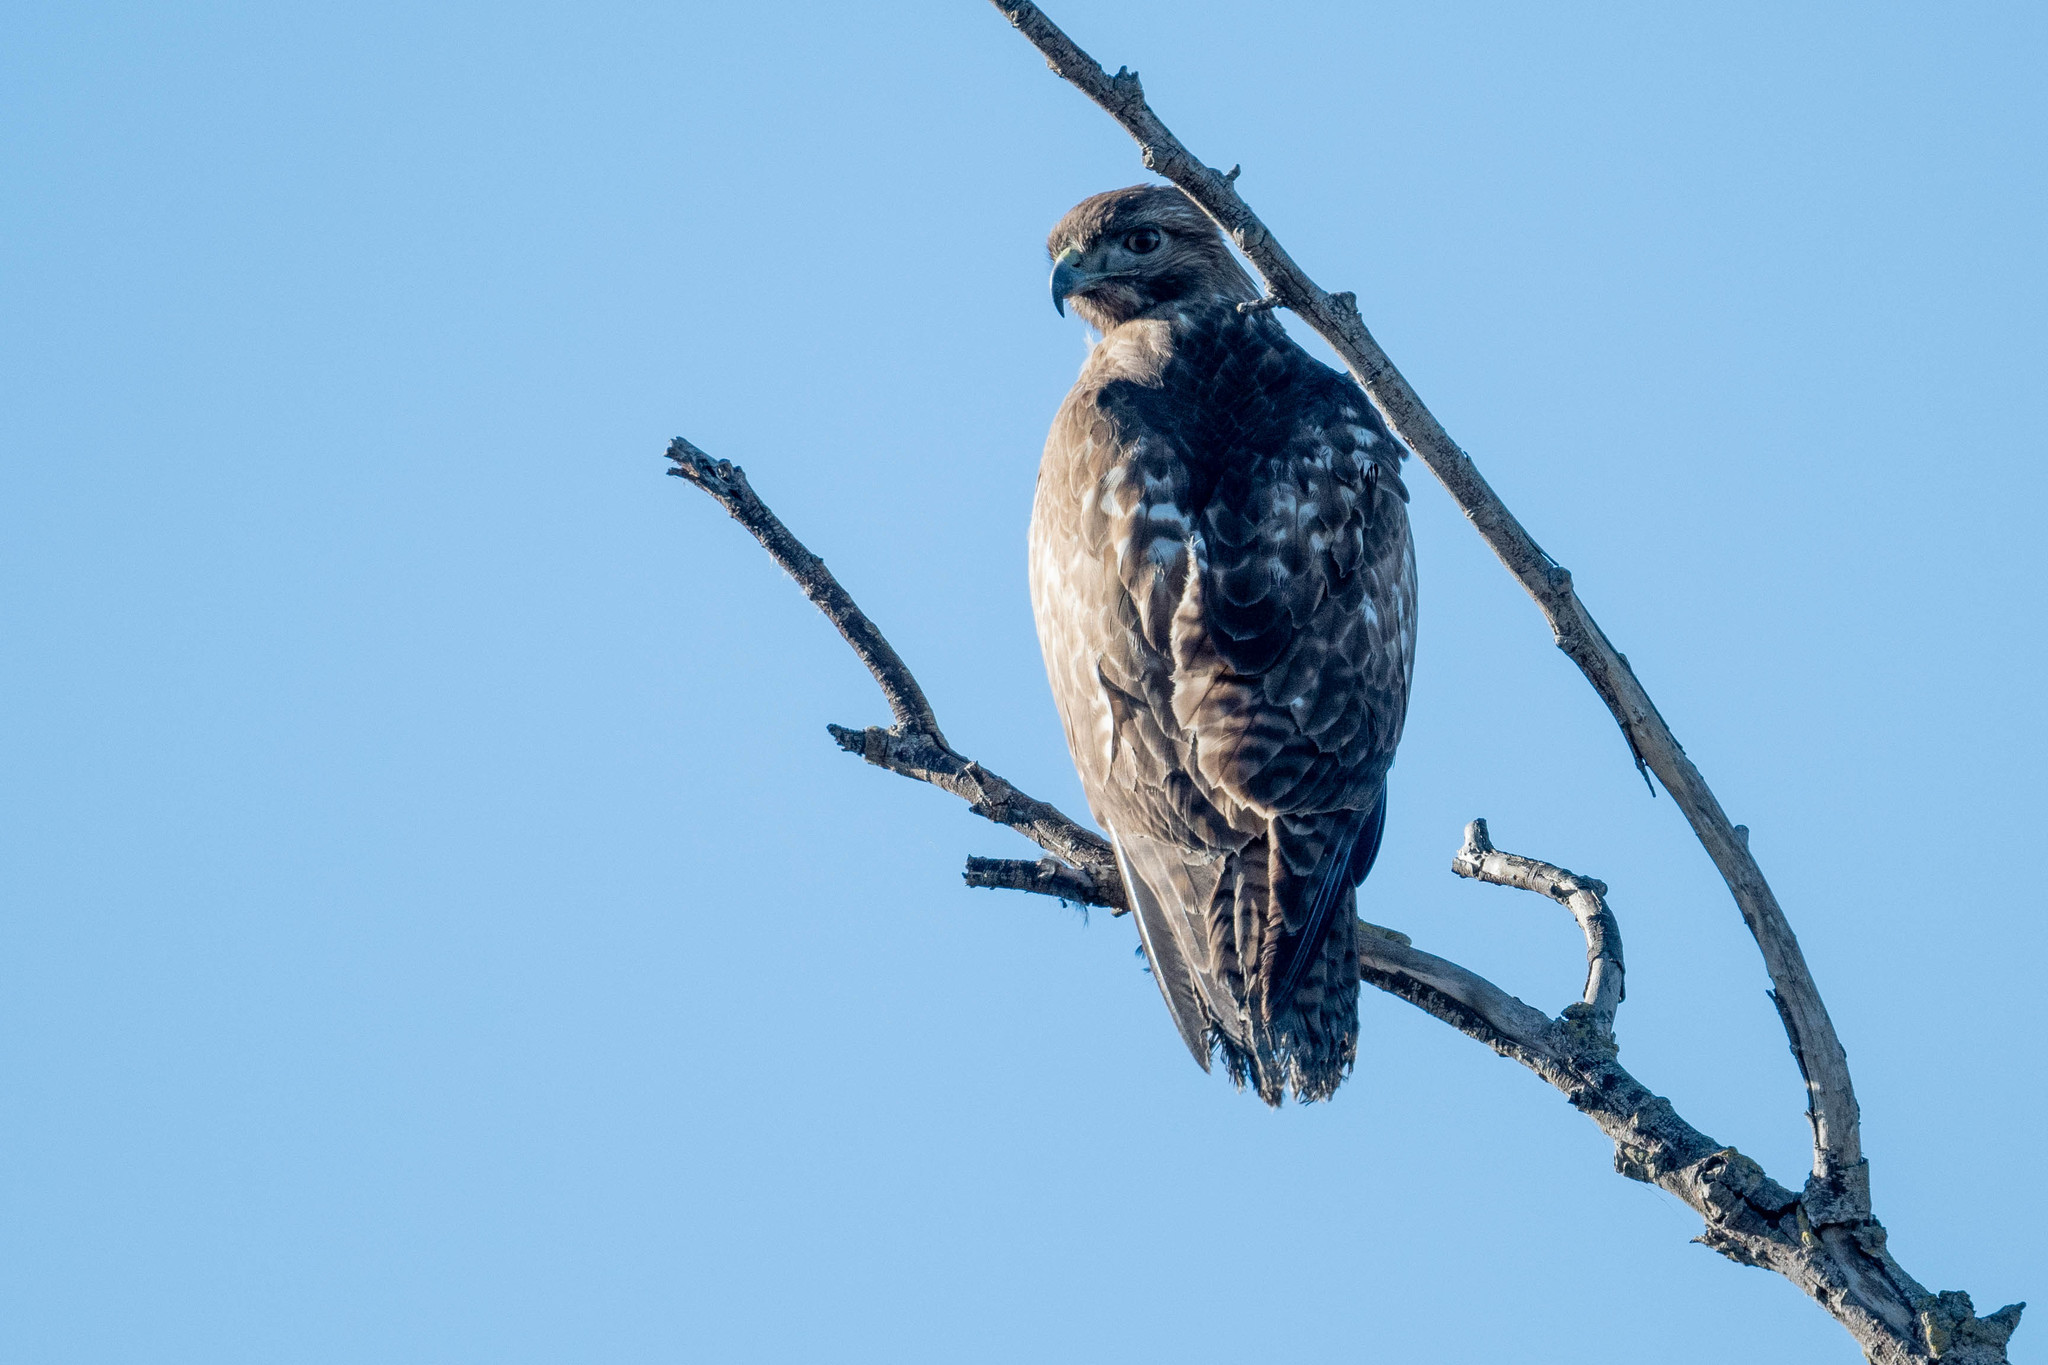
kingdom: Animalia
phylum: Chordata
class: Aves
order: Accipitriformes
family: Accipitridae
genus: Buteo
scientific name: Buteo jamaicensis
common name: Red-tailed hawk
